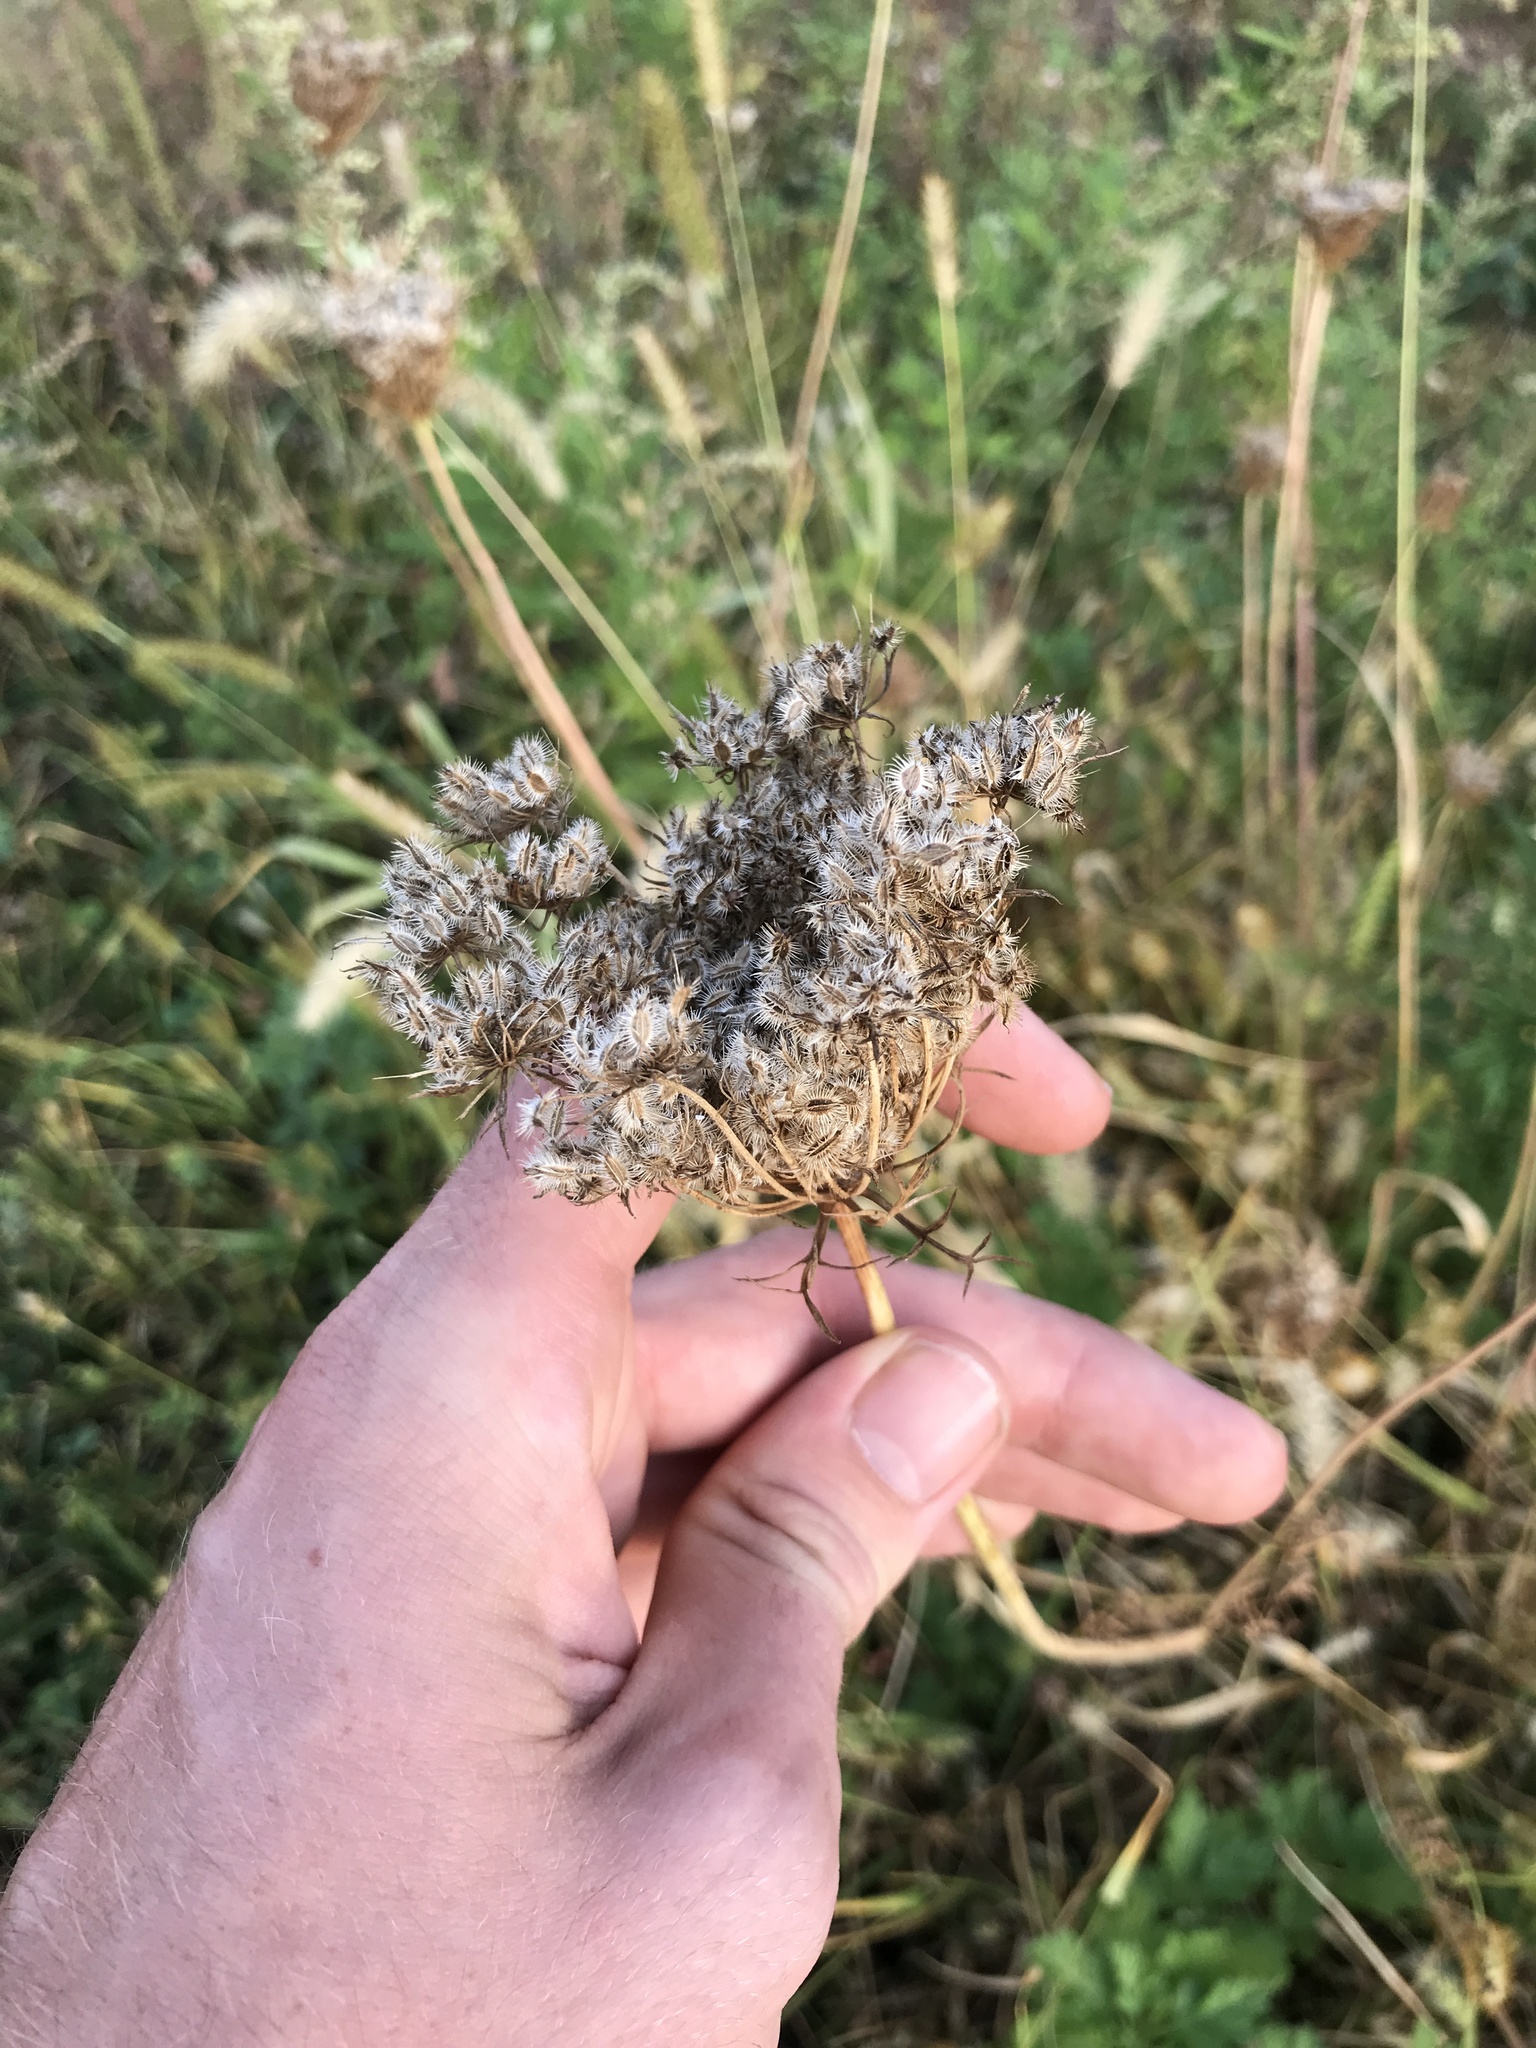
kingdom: Plantae
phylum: Tracheophyta
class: Magnoliopsida
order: Apiales
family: Apiaceae
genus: Daucus
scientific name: Daucus carota
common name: Wild carrot
